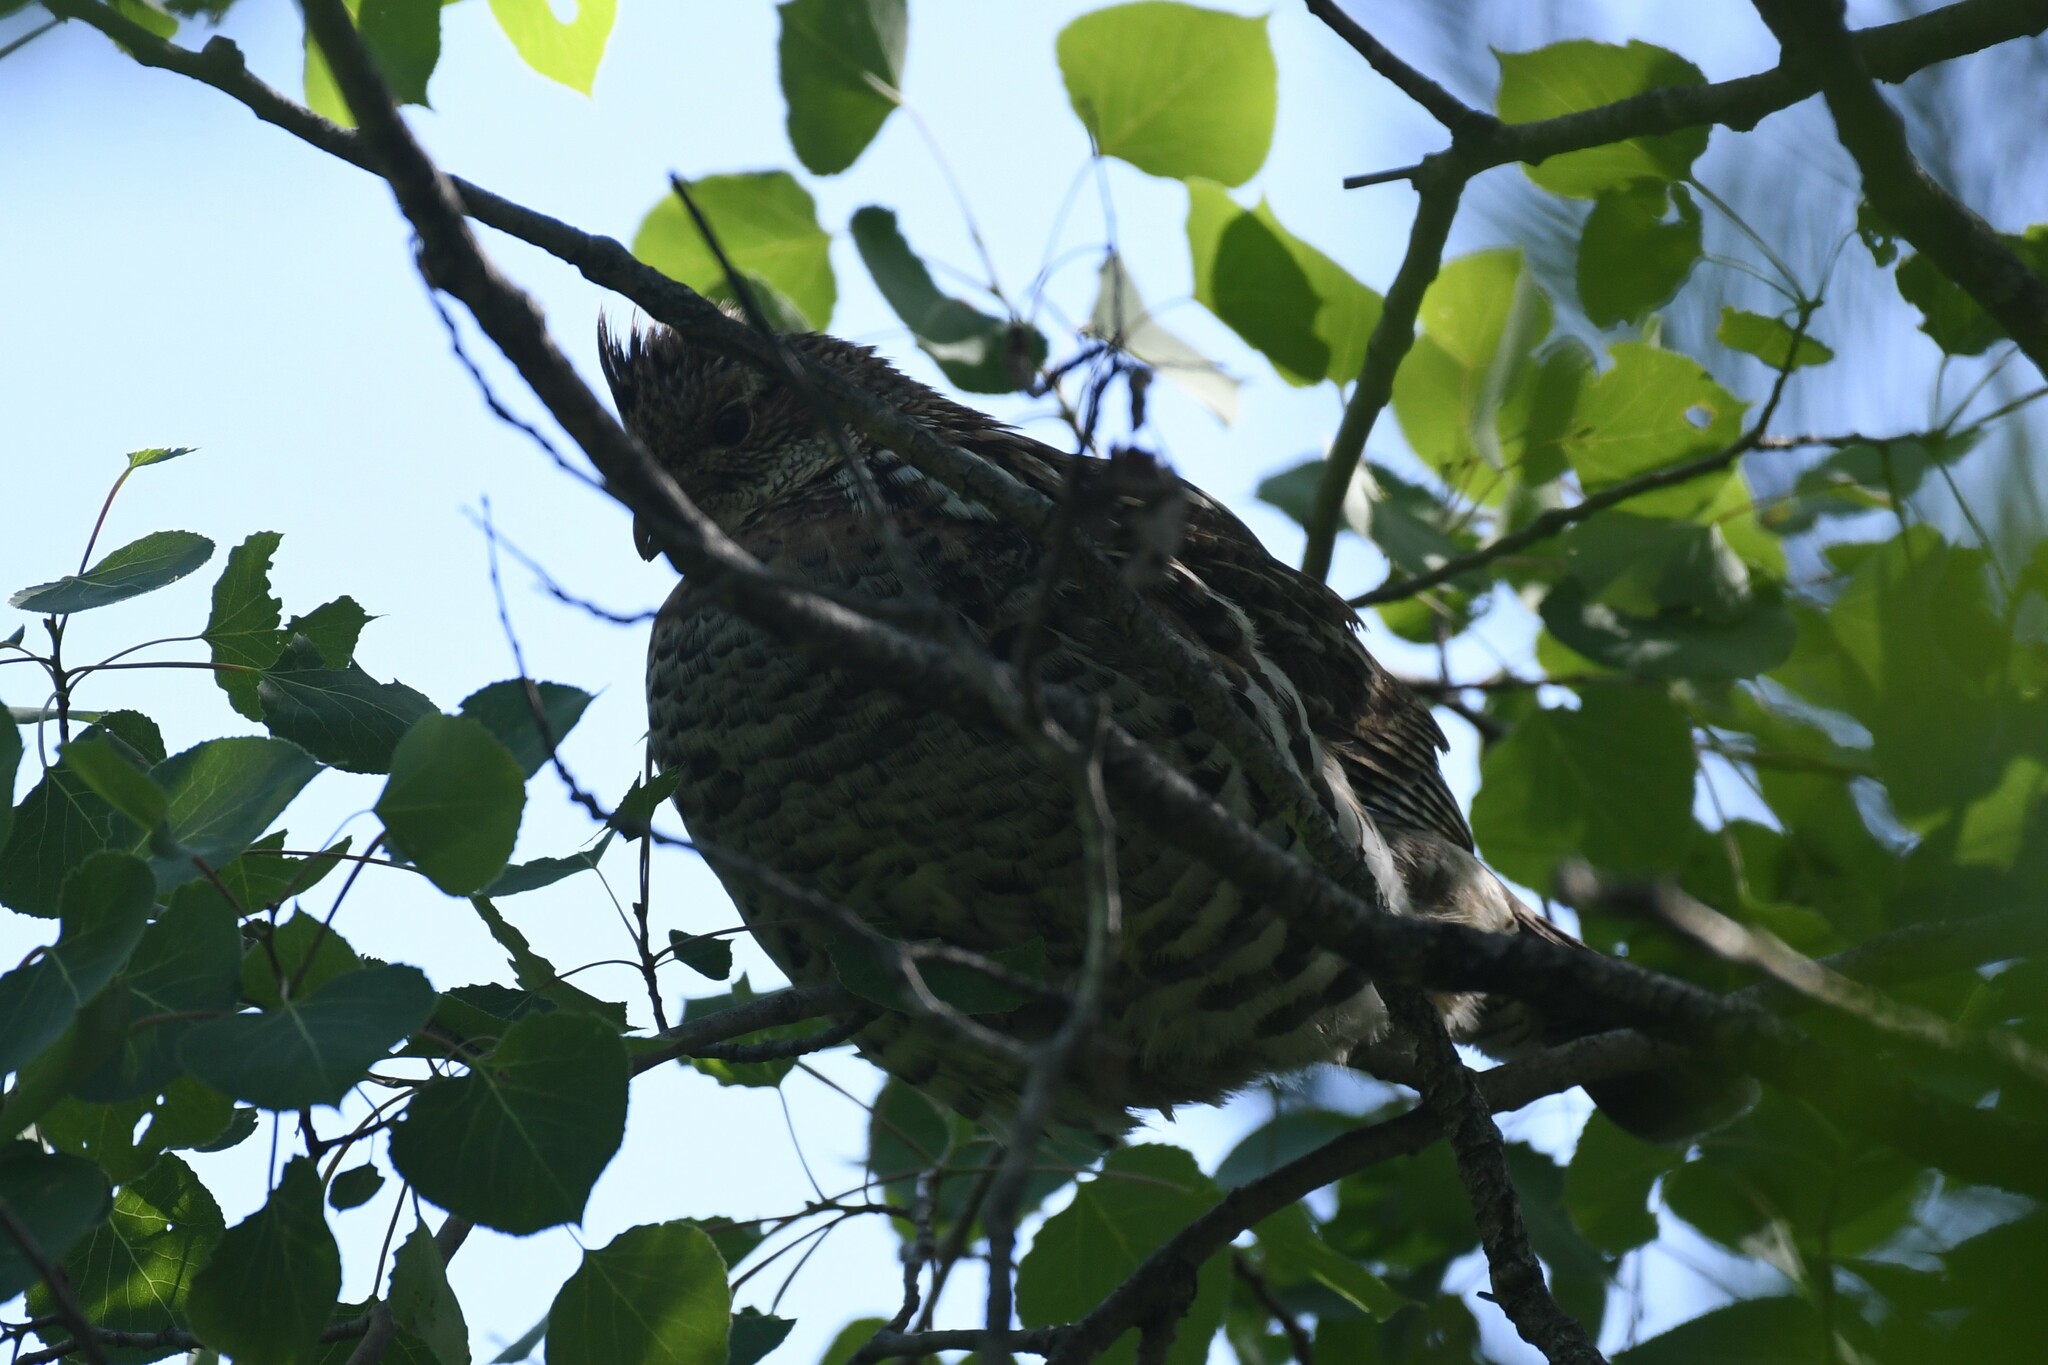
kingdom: Animalia
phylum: Chordata
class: Aves
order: Galliformes
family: Phasianidae
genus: Bonasa
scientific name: Bonasa umbellus
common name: Ruffed grouse
